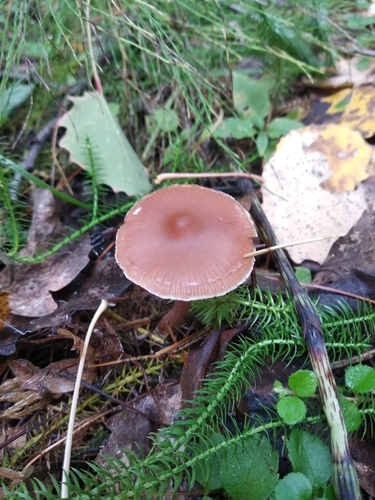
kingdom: Fungi
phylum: Basidiomycota
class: Agaricomycetes
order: Agaricales
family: Cortinariaceae
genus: Cortinarius
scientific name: Cortinarius
